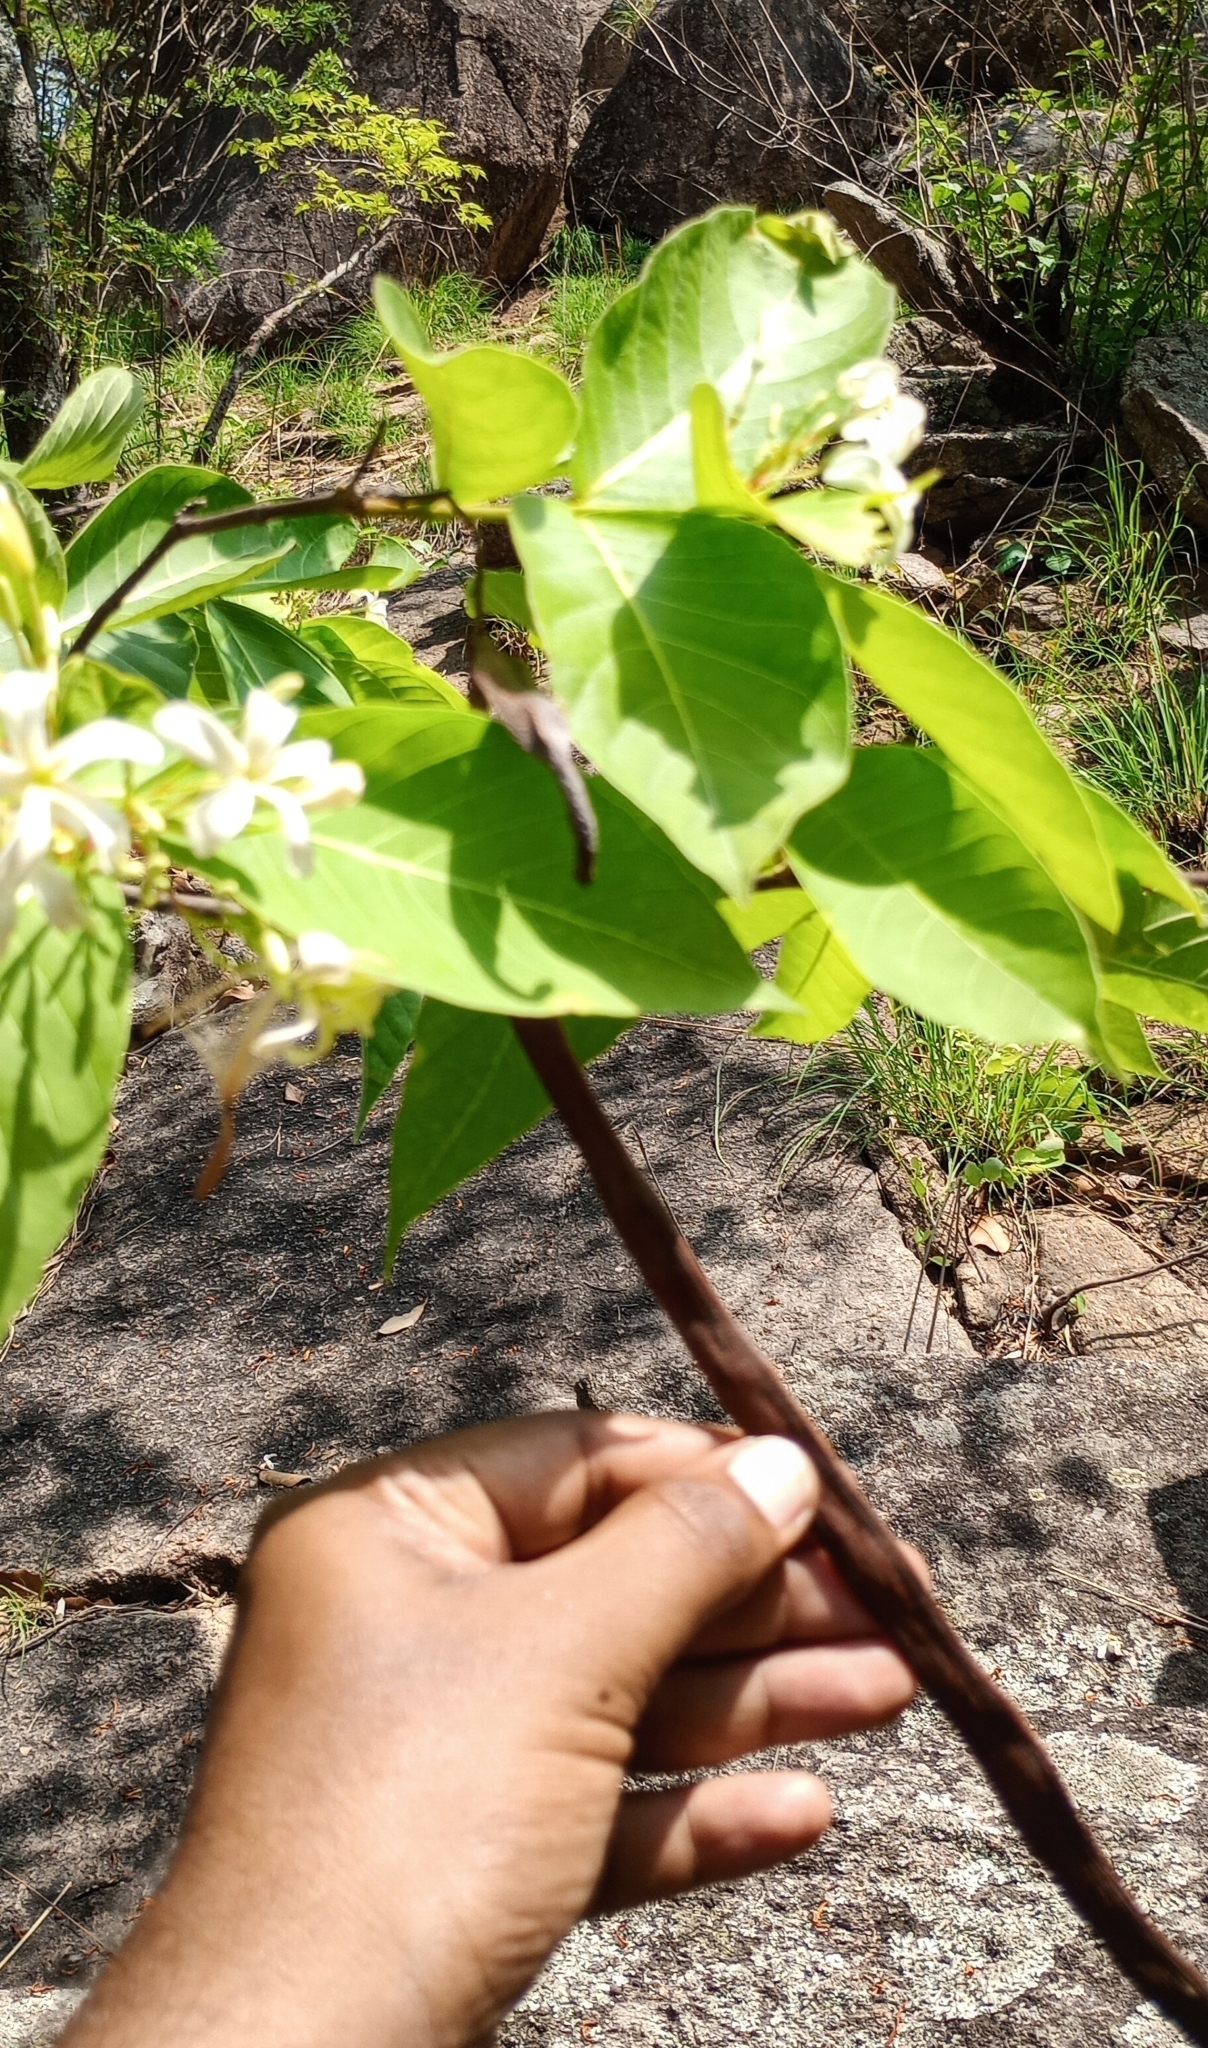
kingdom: Plantae
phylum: Tracheophyta
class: Magnoliopsida
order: Gentianales
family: Apocynaceae
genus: Holarrhena
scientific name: Holarrhena pubescens
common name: Bitter oleander
